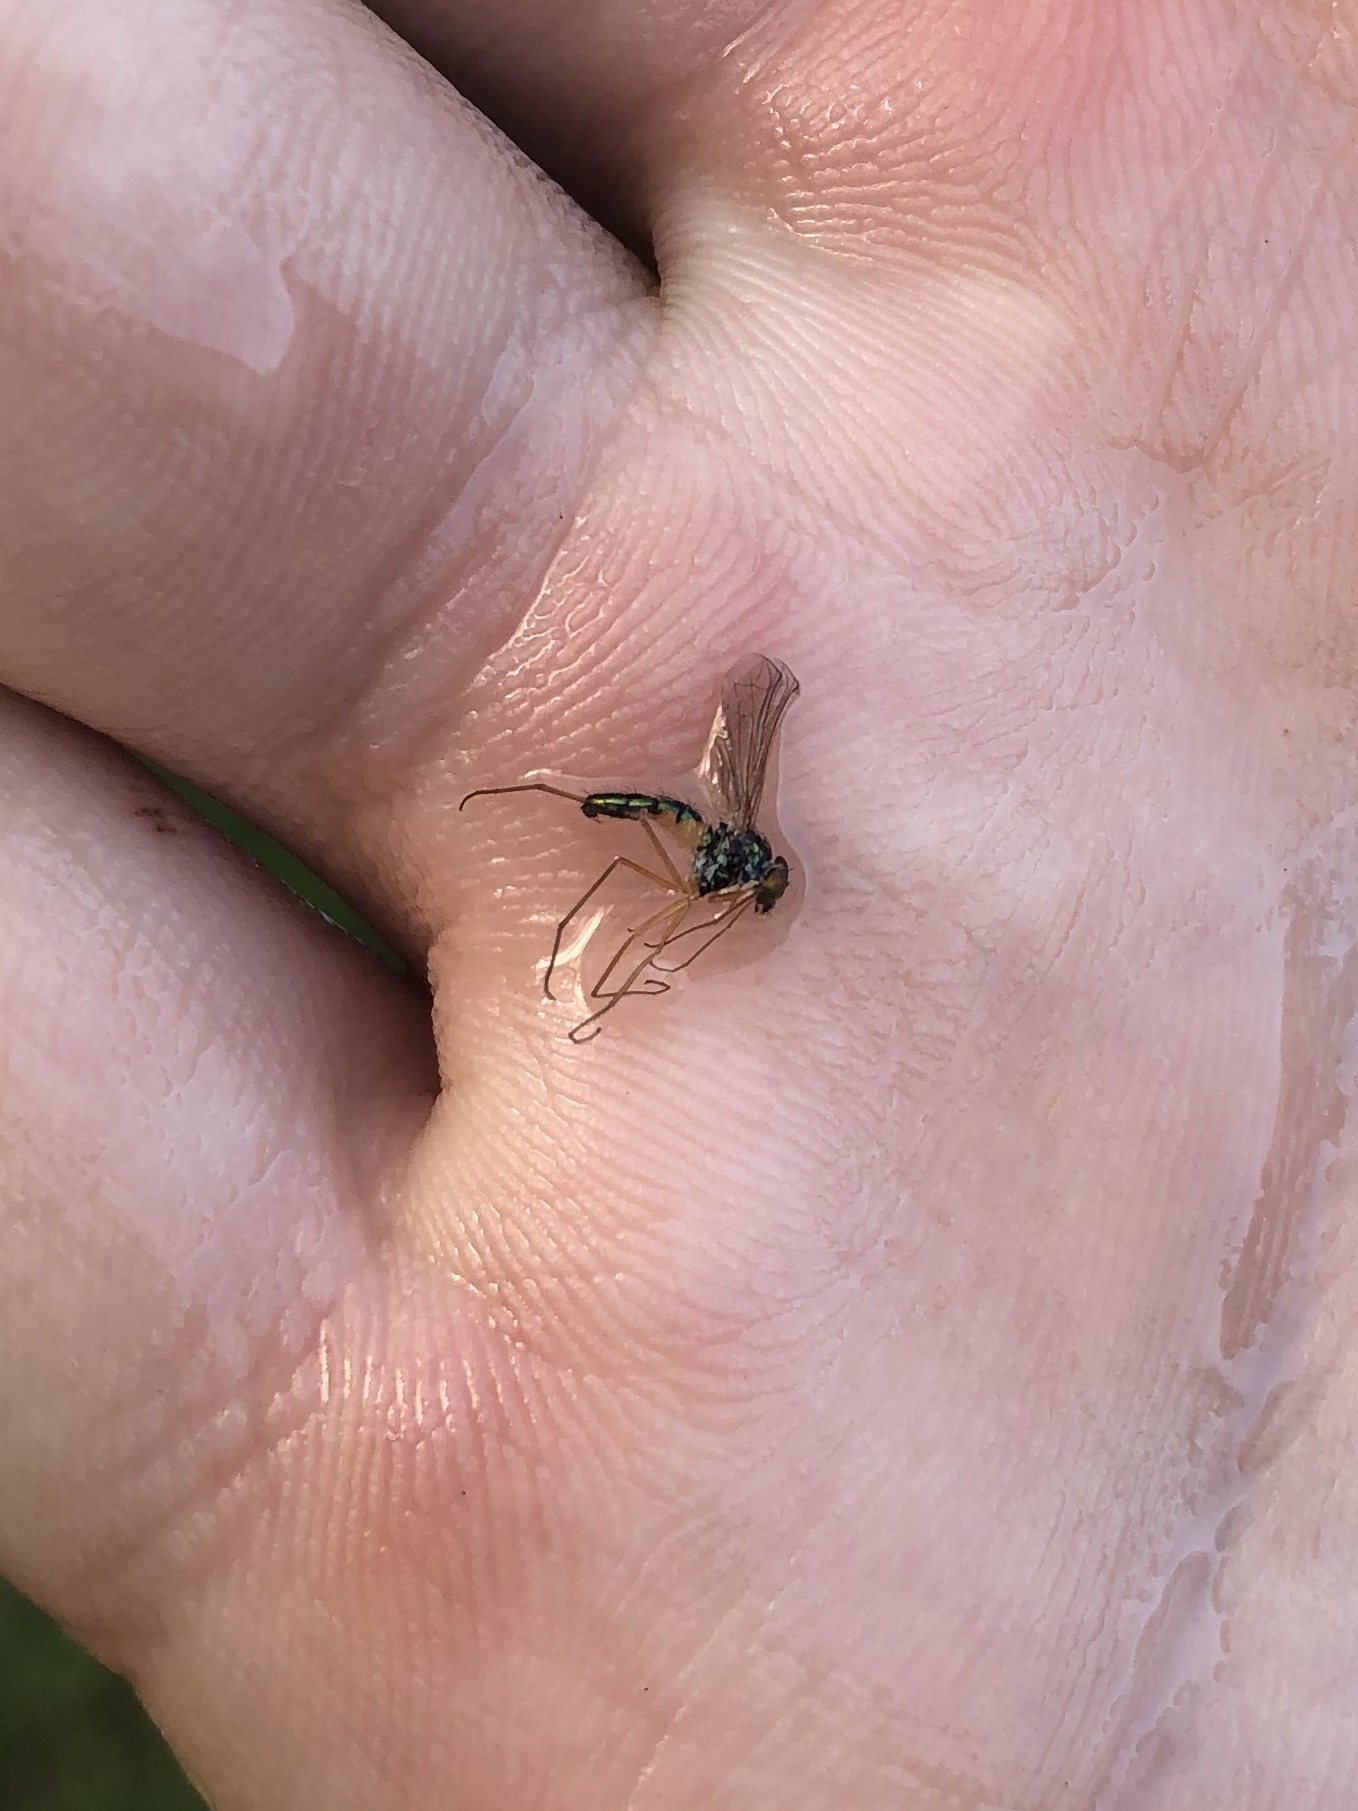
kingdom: Animalia
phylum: Arthropoda
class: Insecta
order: Diptera
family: Dolichopodidae
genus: Amblypsilopus
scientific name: Amblypsilopus psittacinus
